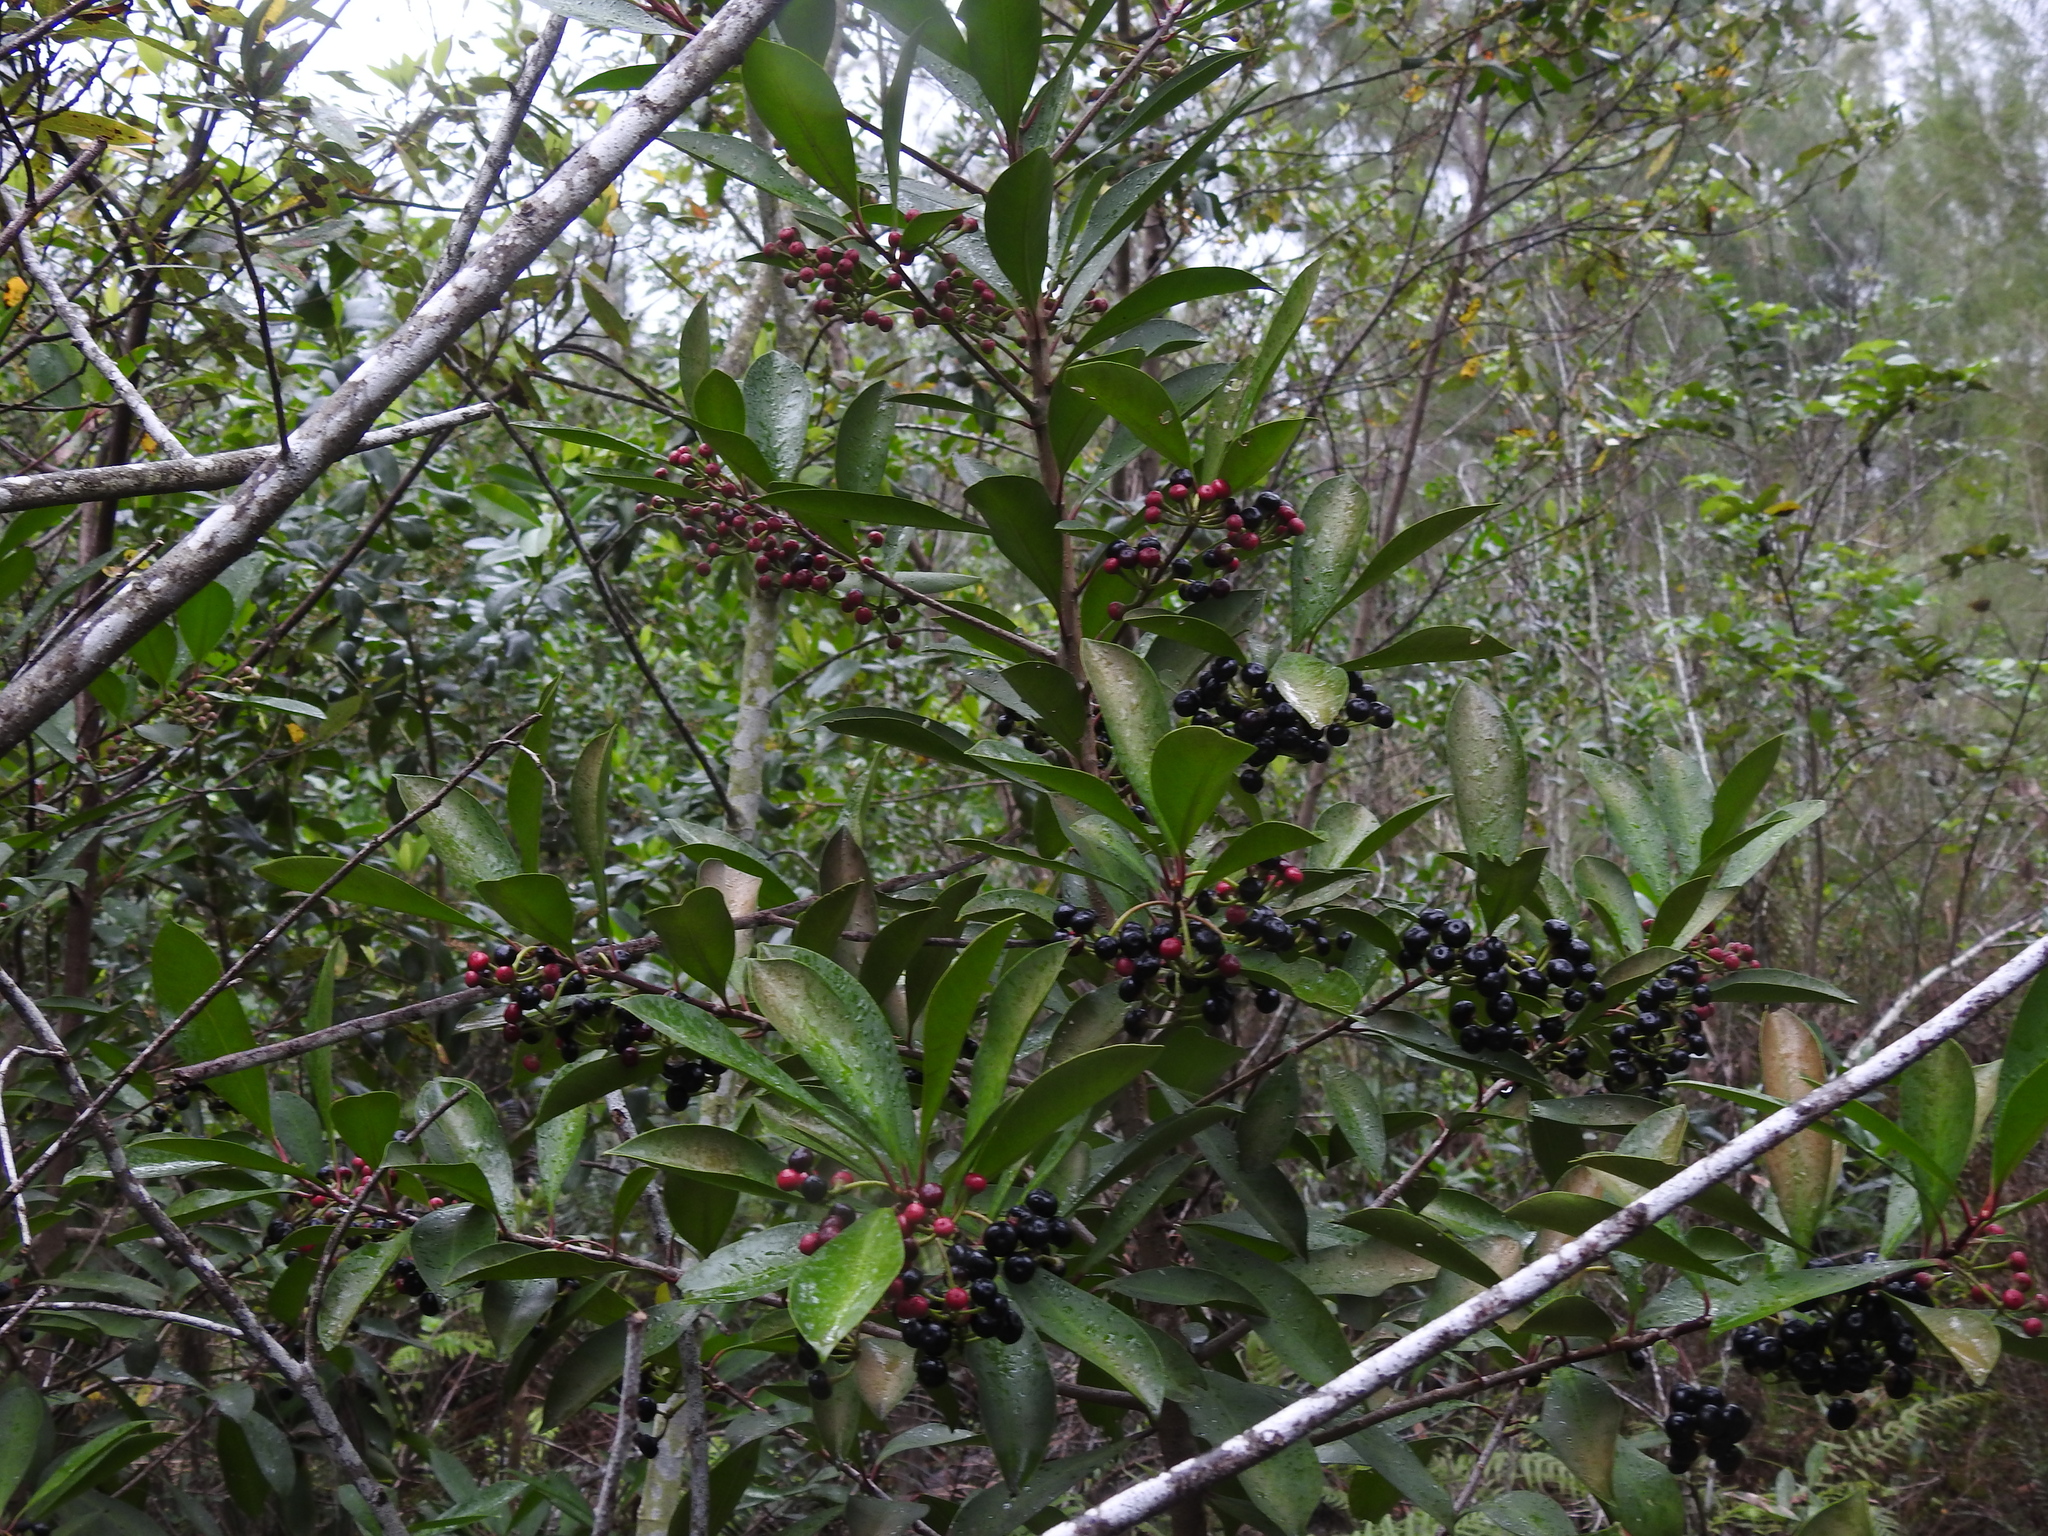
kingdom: Plantae
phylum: Tracheophyta
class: Magnoliopsida
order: Ericales
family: Primulaceae
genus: Ardisia
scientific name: Ardisia elliptica
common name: Shoebutton
